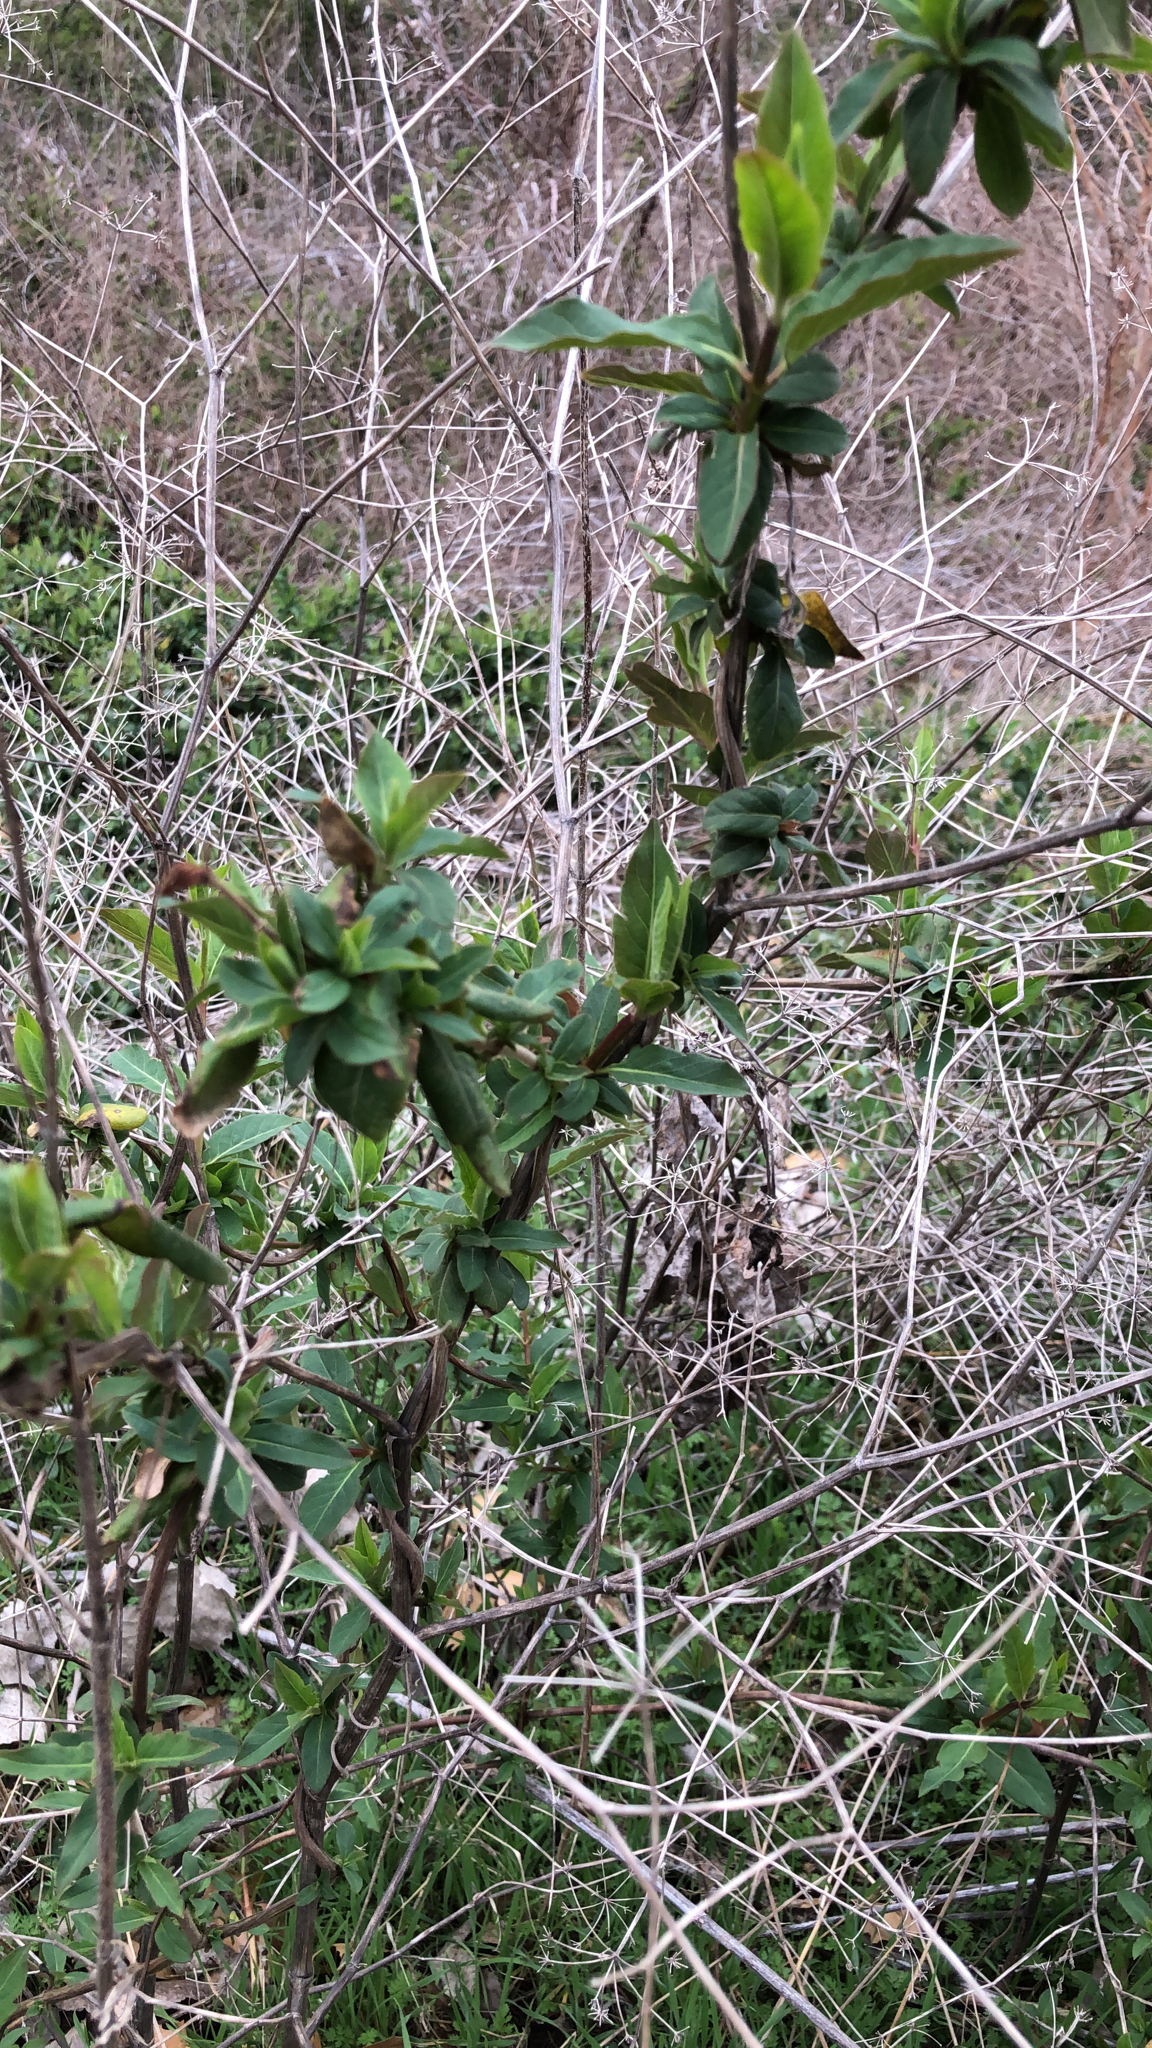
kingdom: Plantae
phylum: Tracheophyta
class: Magnoliopsida
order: Dipsacales
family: Caprifoliaceae
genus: Lonicera
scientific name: Lonicera japonica
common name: Japanese honeysuckle
